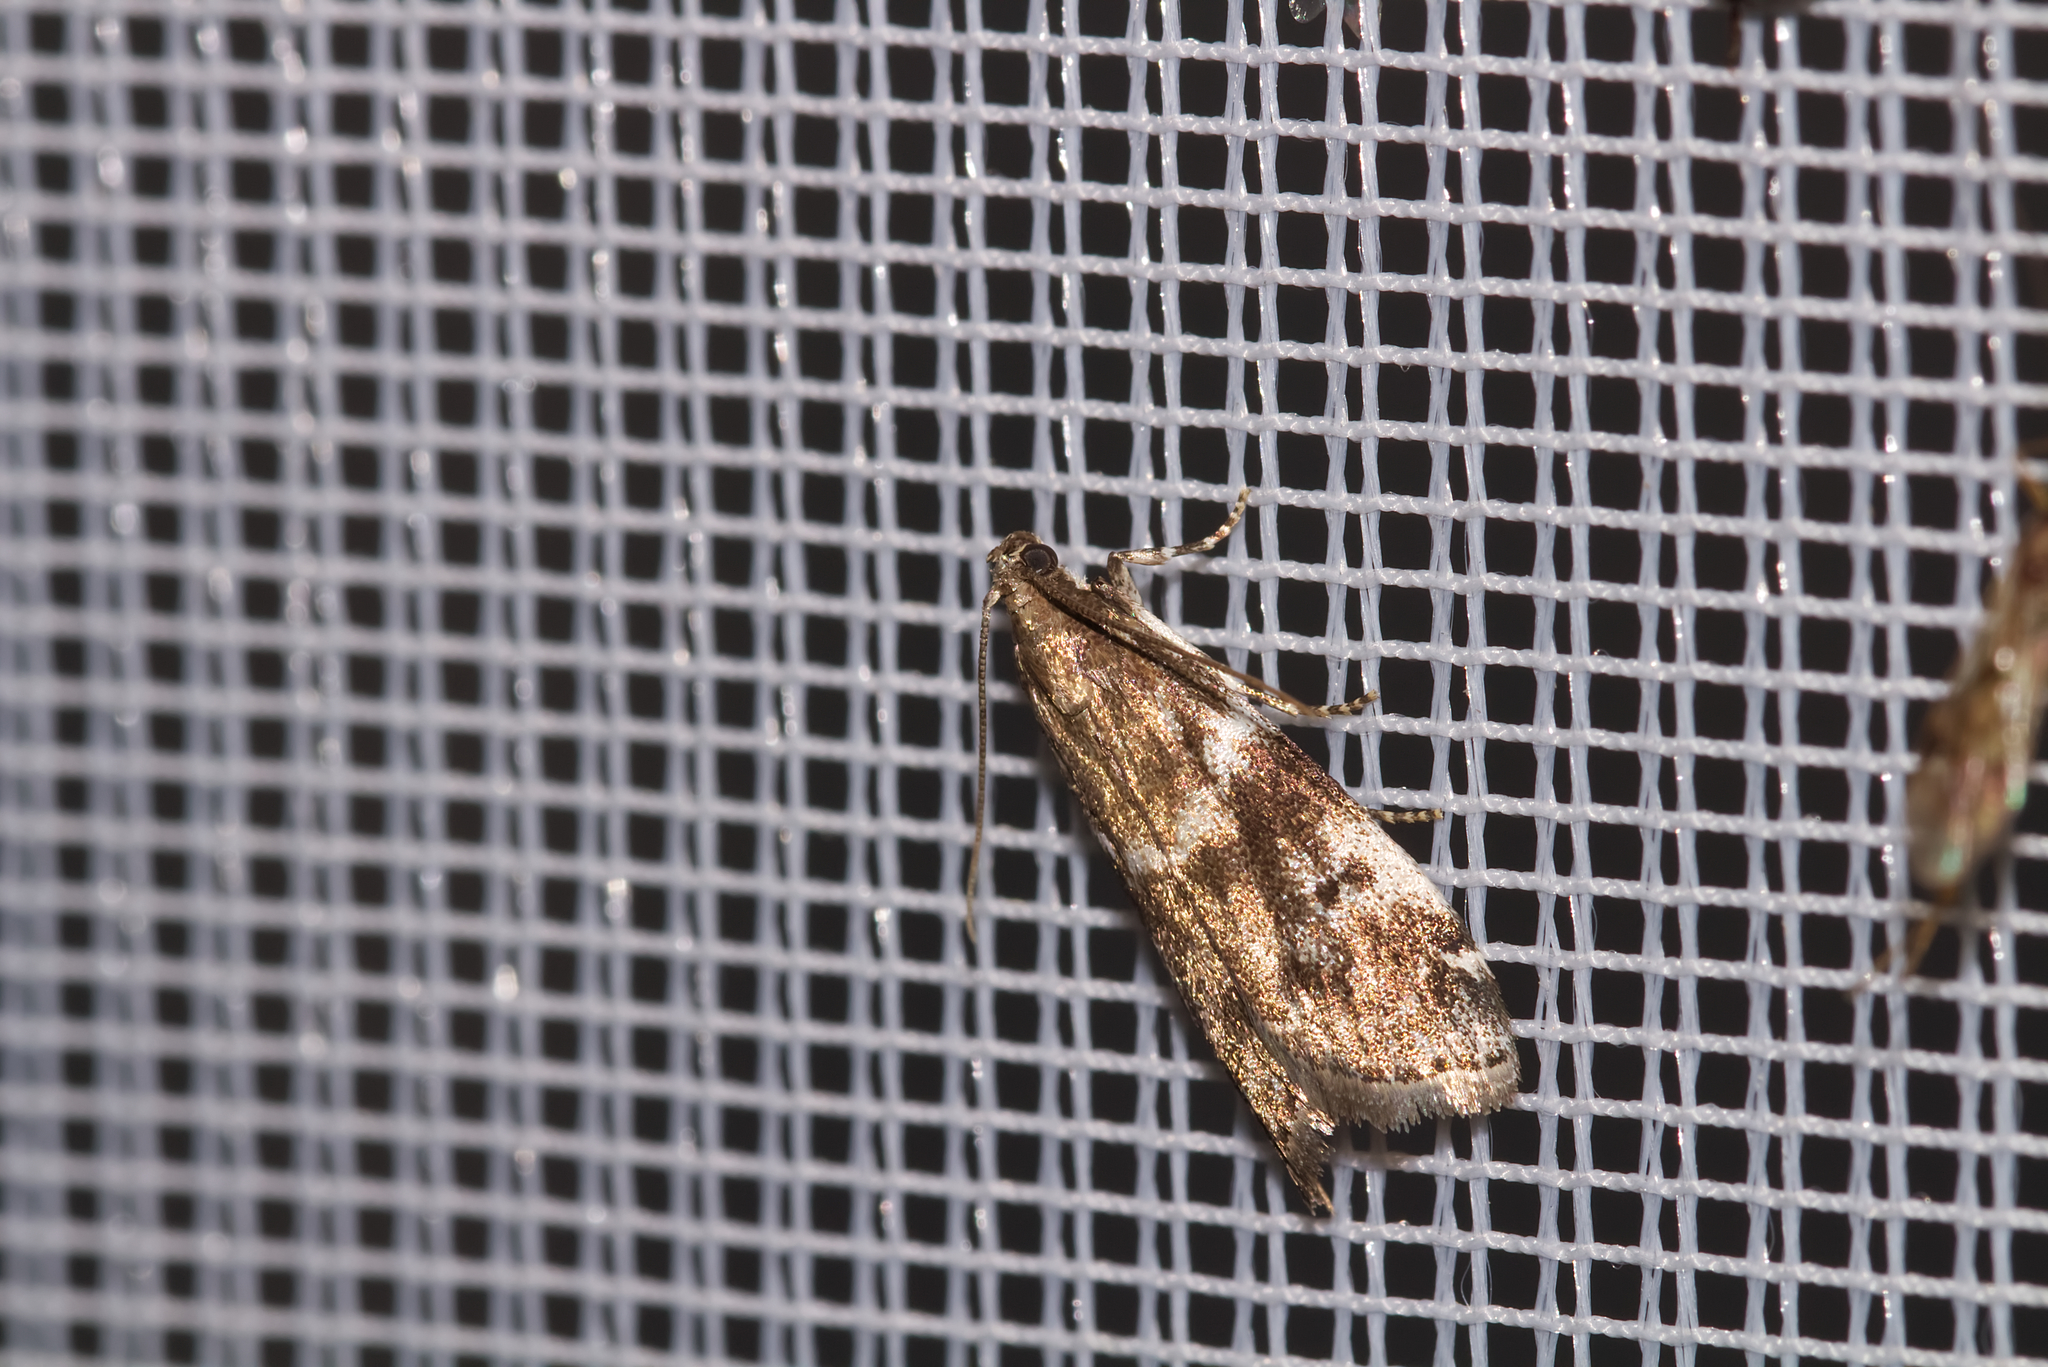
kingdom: Animalia
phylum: Arthropoda
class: Insecta
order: Lepidoptera
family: Pyralidae
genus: Assara
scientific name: Assara terebrella
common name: Dark spruce knot-horn
